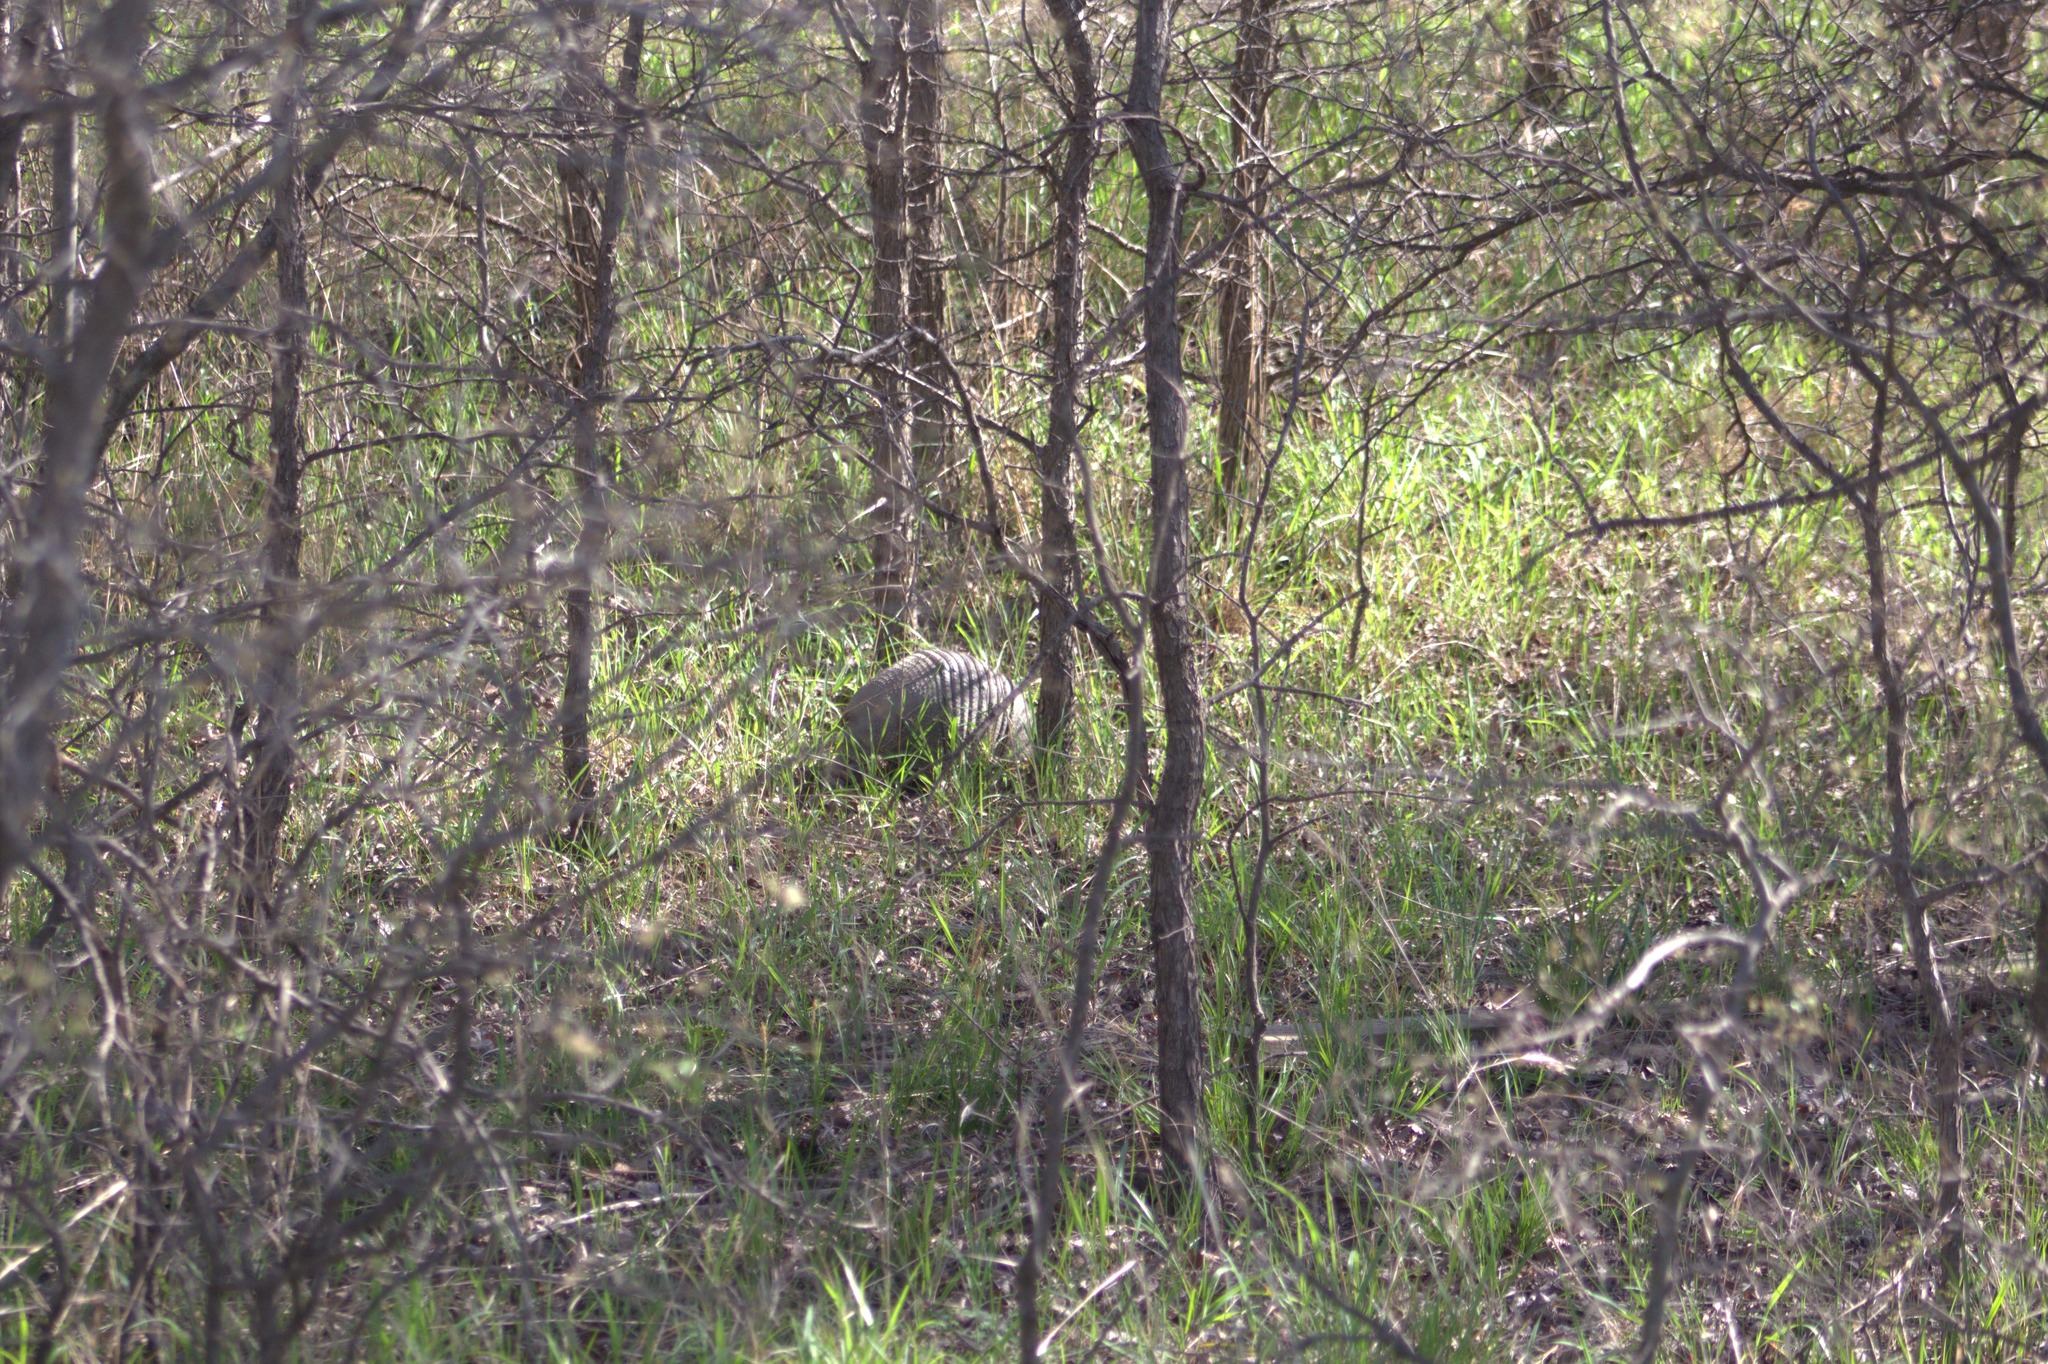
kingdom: Animalia
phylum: Chordata
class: Mammalia
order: Cingulata
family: Dasypodidae
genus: Dasypus
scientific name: Dasypus novemcinctus
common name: Nine-banded armadillo
